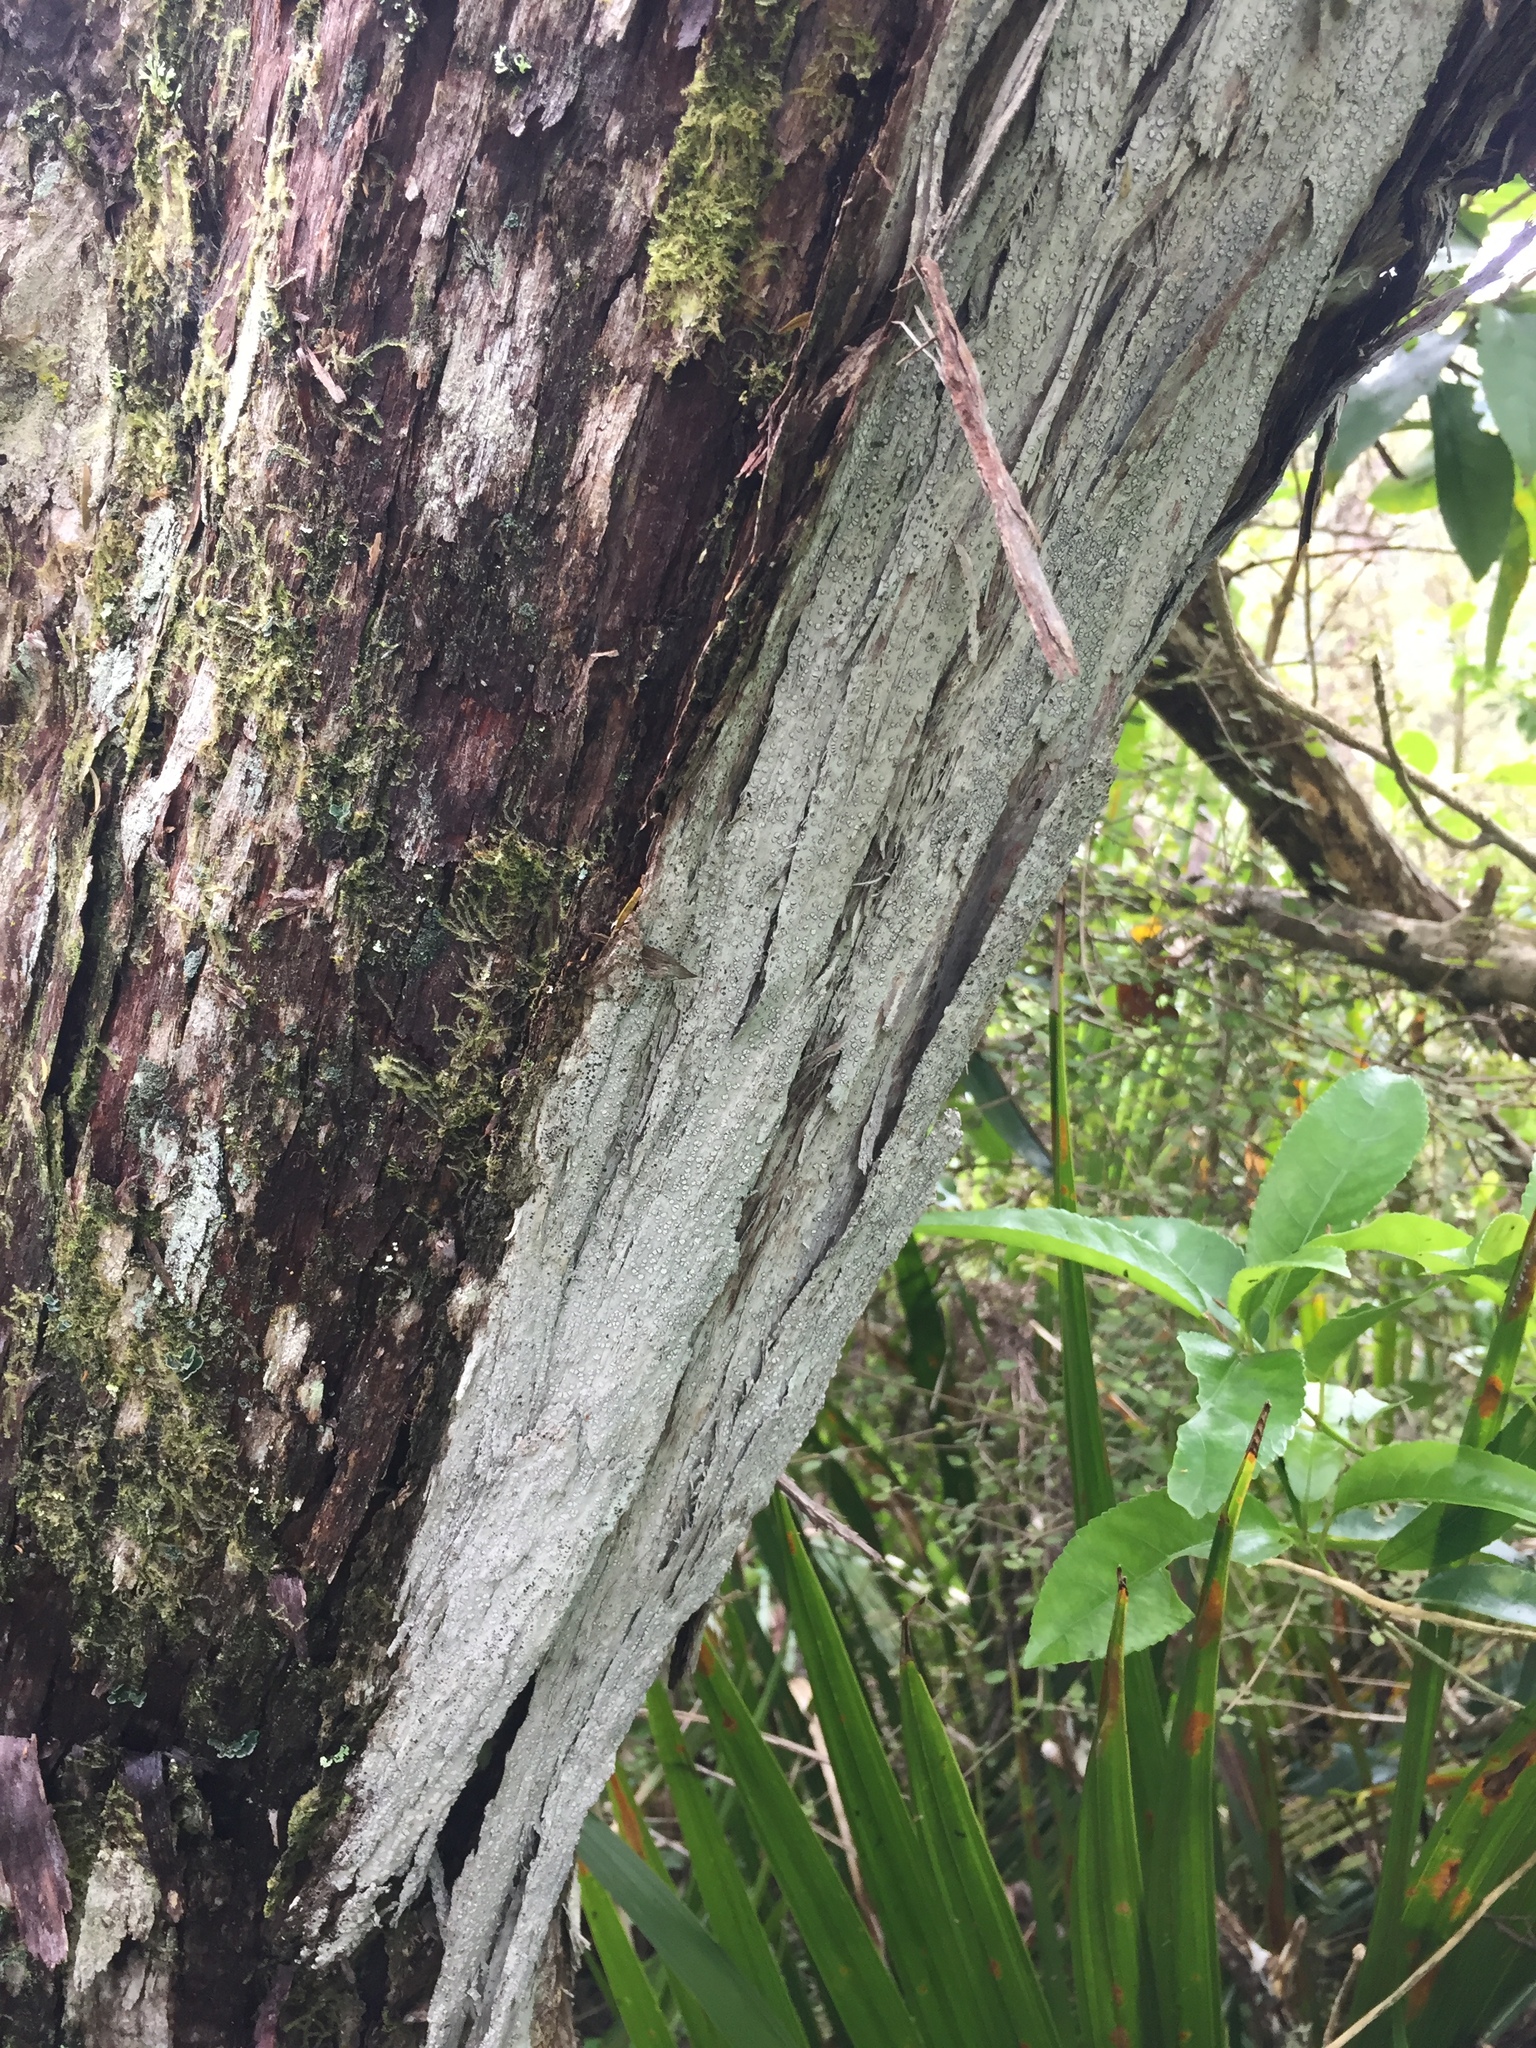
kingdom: Fungi
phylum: Ascomycota
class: Arthoniomycetes
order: Arthoniales
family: Roccellaceae
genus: Lecanactis
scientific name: Lecanactis subfarinosa
